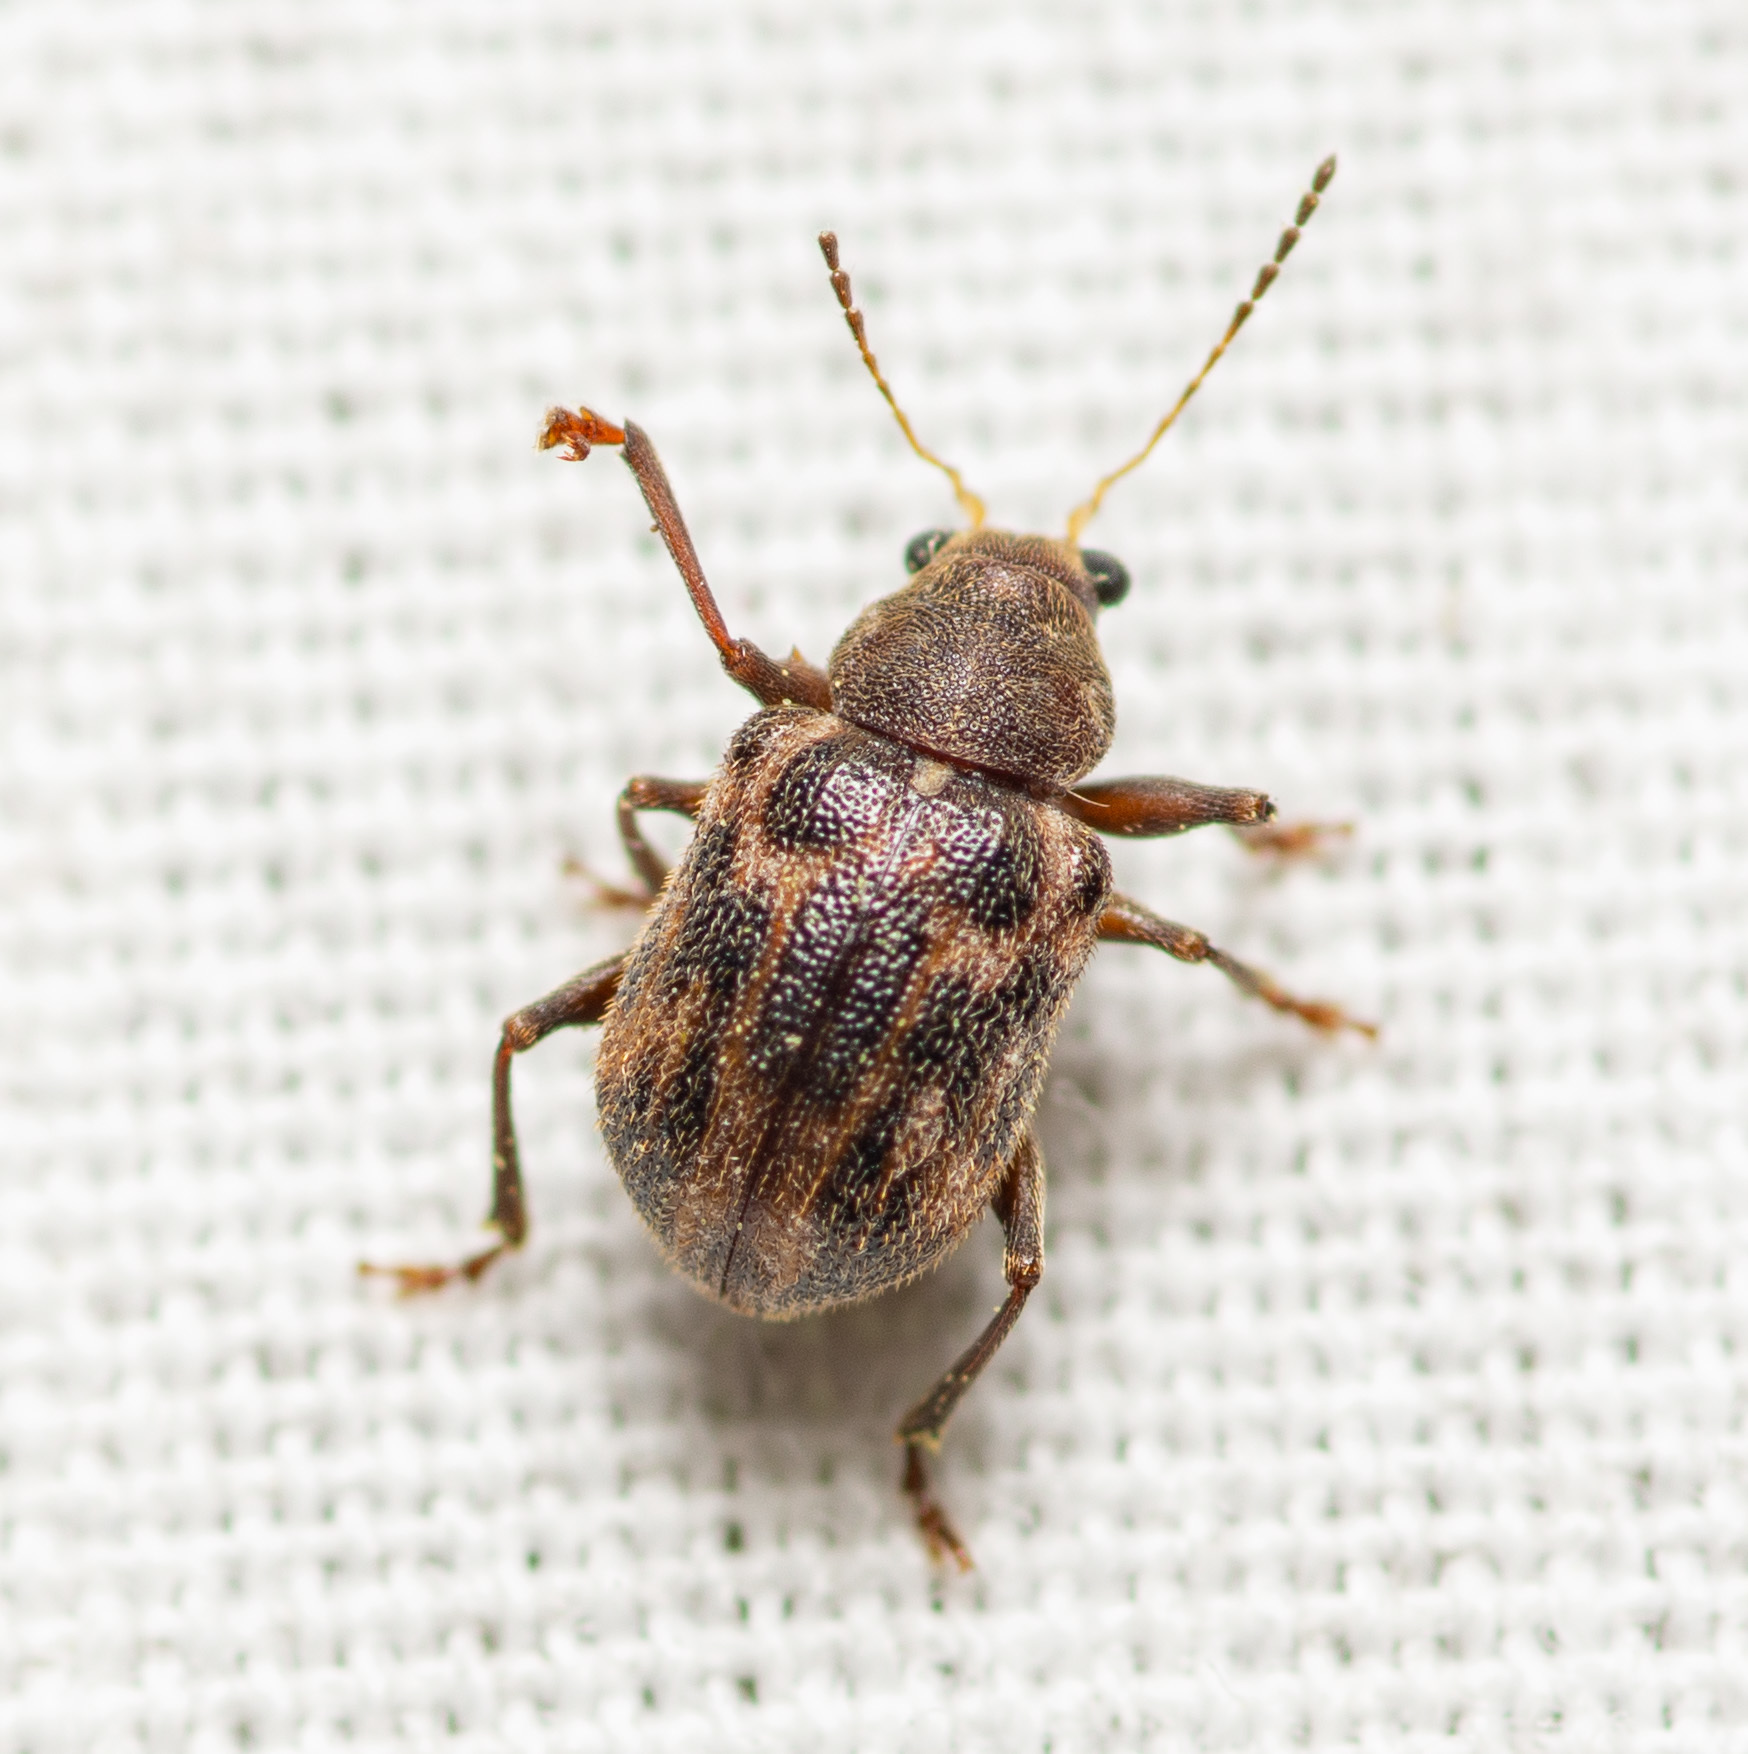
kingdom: Animalia
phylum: Arthropoda
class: Insecta
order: Coleoptera
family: Chrysomelidae
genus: Xanthonia
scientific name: Xanthonia picturata
